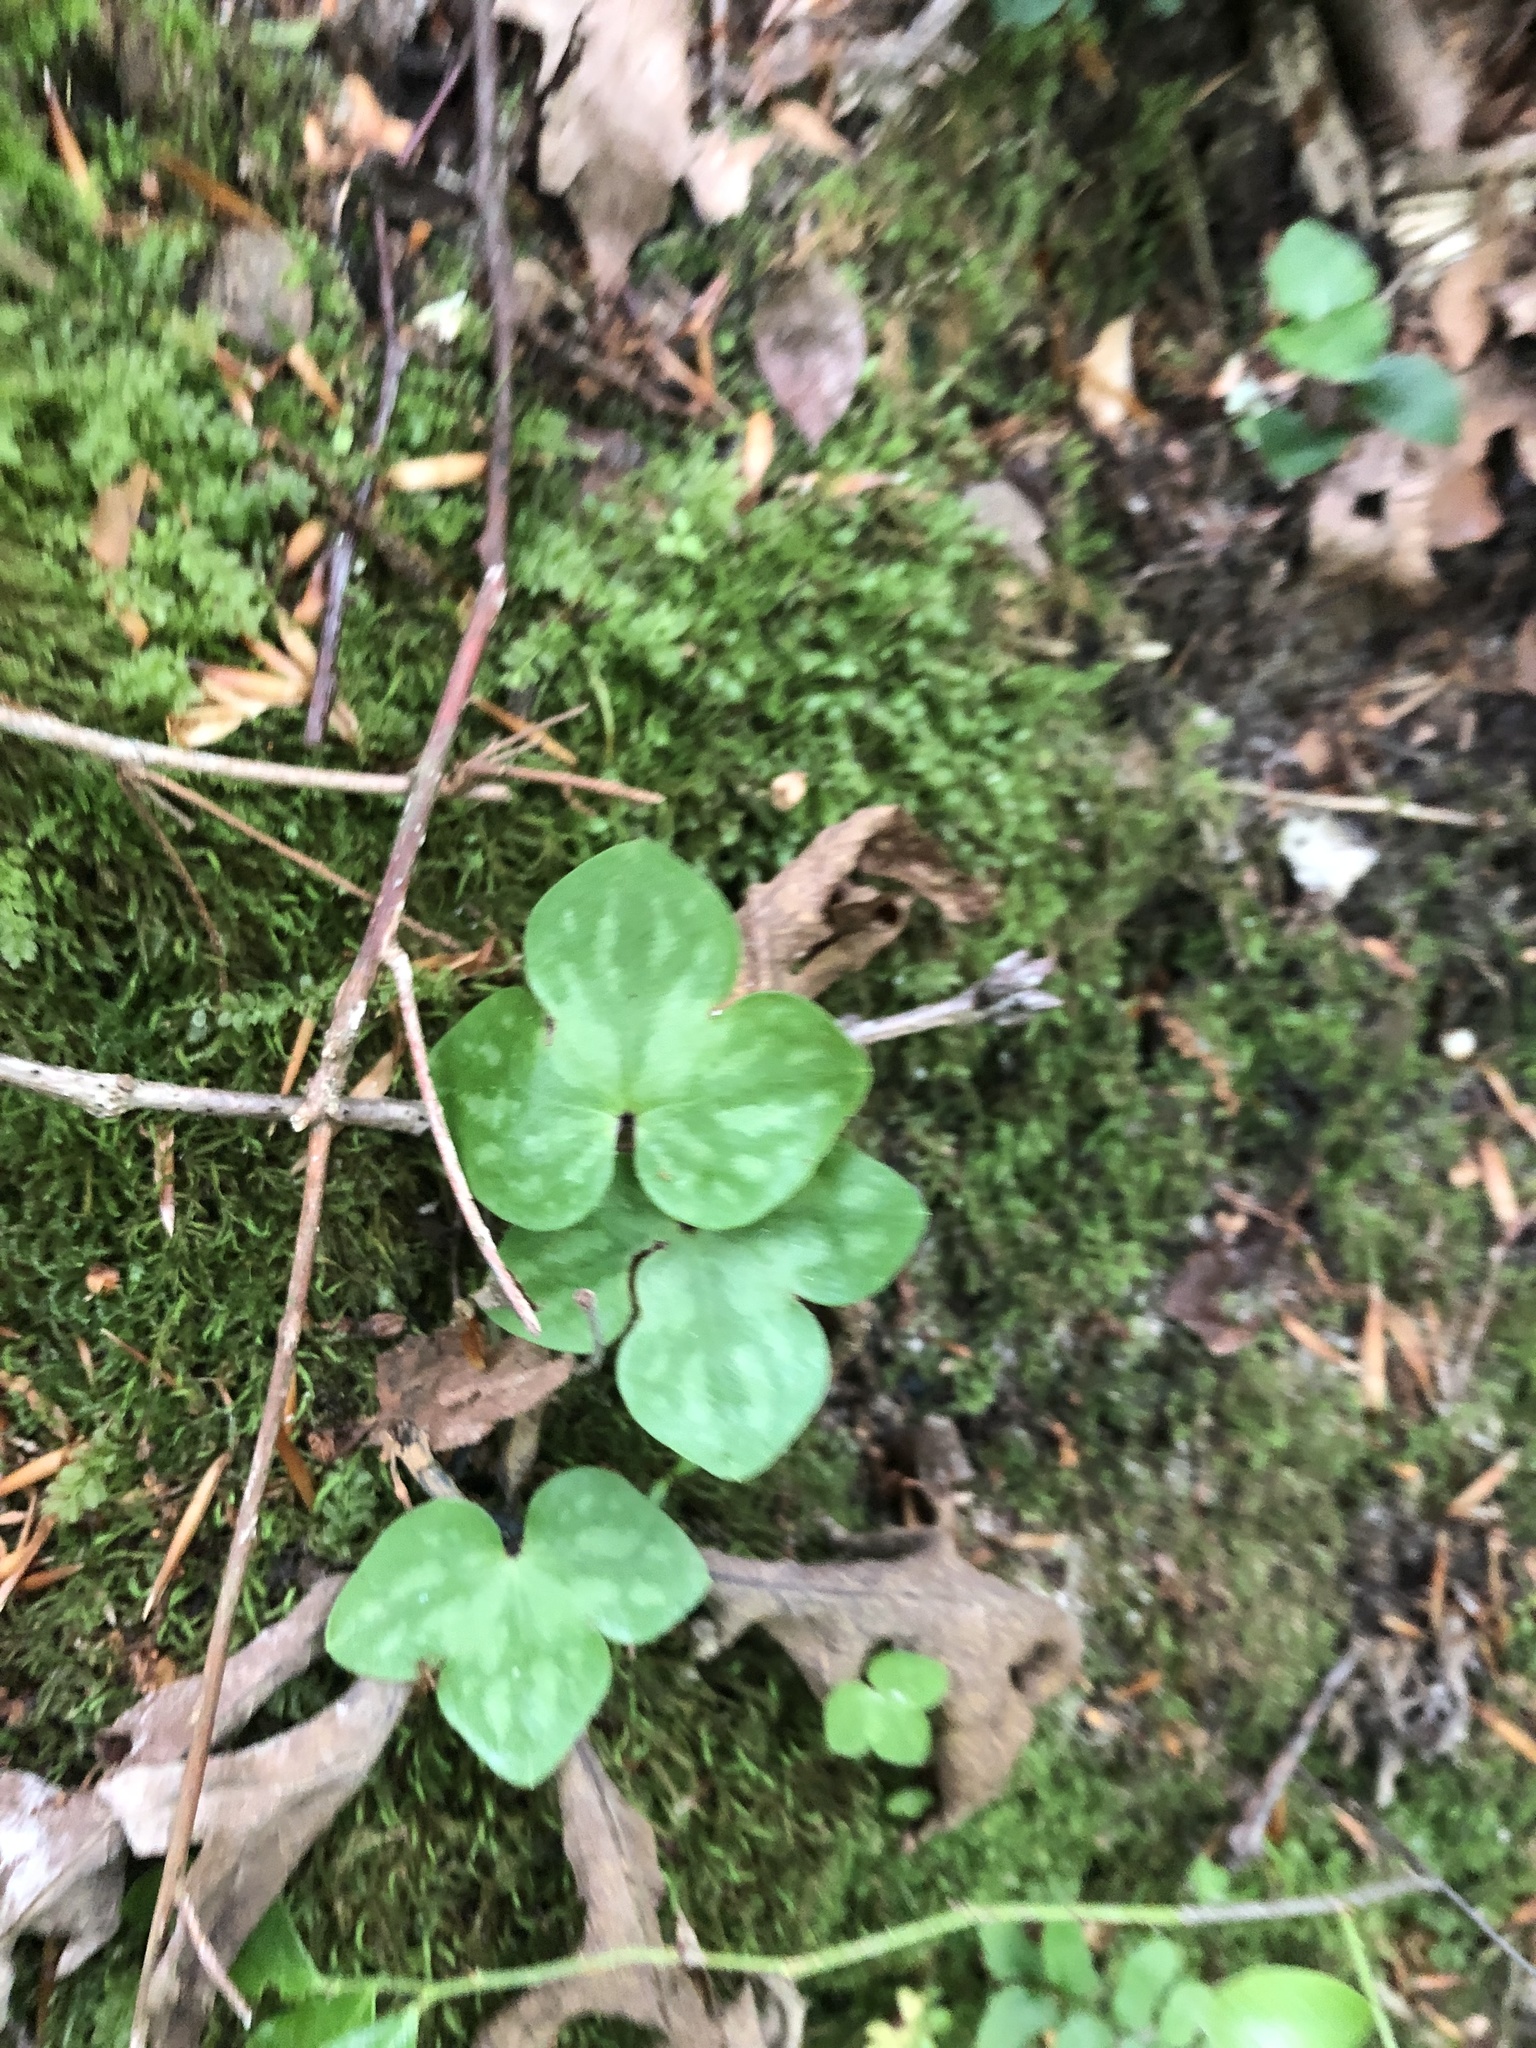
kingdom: Plantae
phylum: Tracheophyta
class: Magnoliopsida
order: Ranunculales
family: Ranunculaceae
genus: Hepatica
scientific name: Hepatica americana
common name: American hepatica
